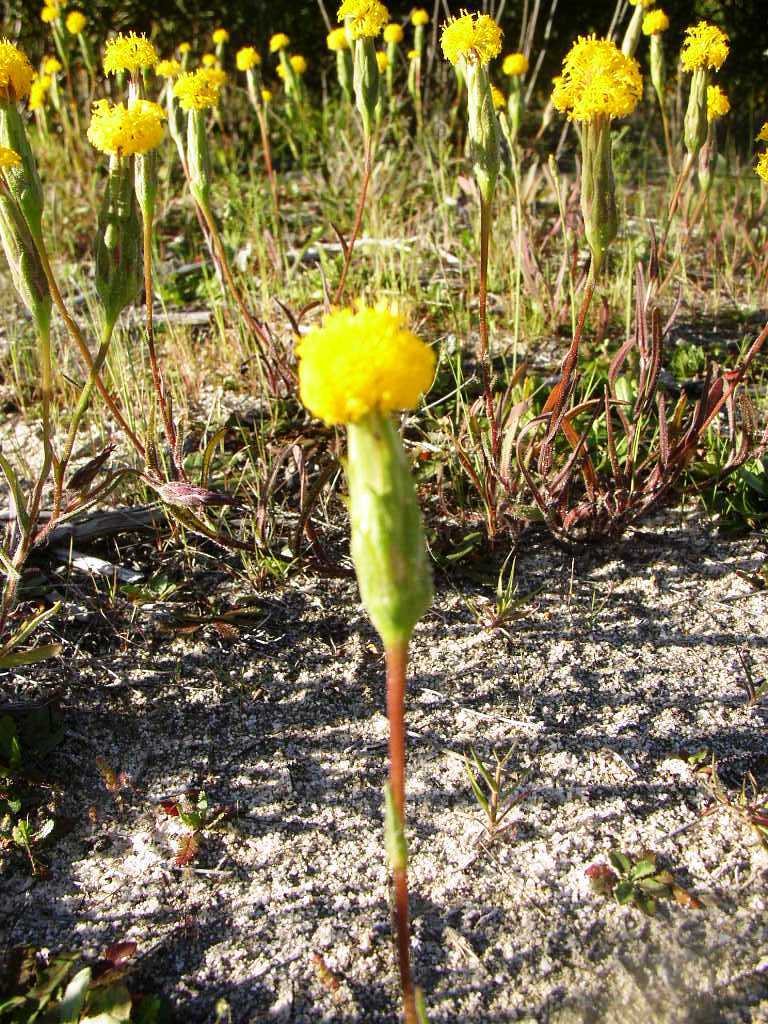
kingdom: Plantae
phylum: Tracheophyta
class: Magnoliopsida
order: Asterales
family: Asteraceae
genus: Podotheca
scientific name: Podotheca gnaphalioides
